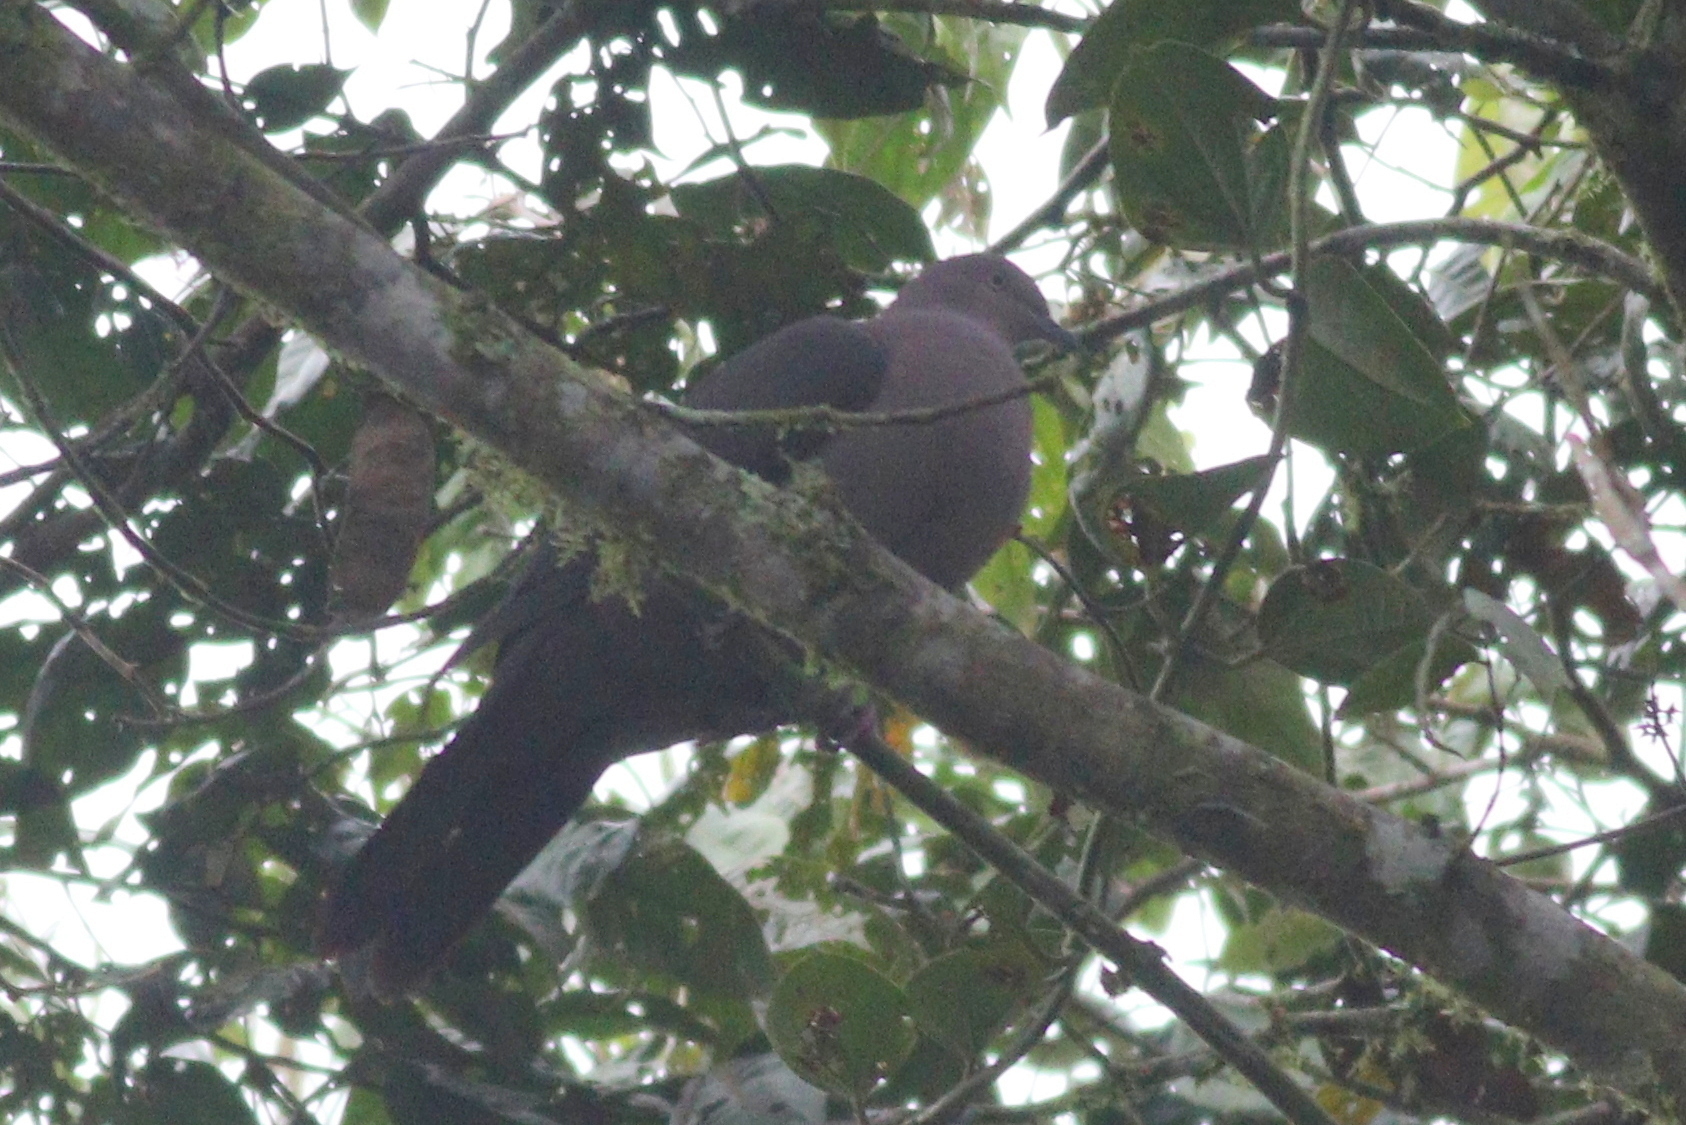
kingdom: Animalia
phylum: Chordata
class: Aves
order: Columbiformes
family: Columbidae
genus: Patagioenas
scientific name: Patagioenas plumbea
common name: Plumbeous pigeon
